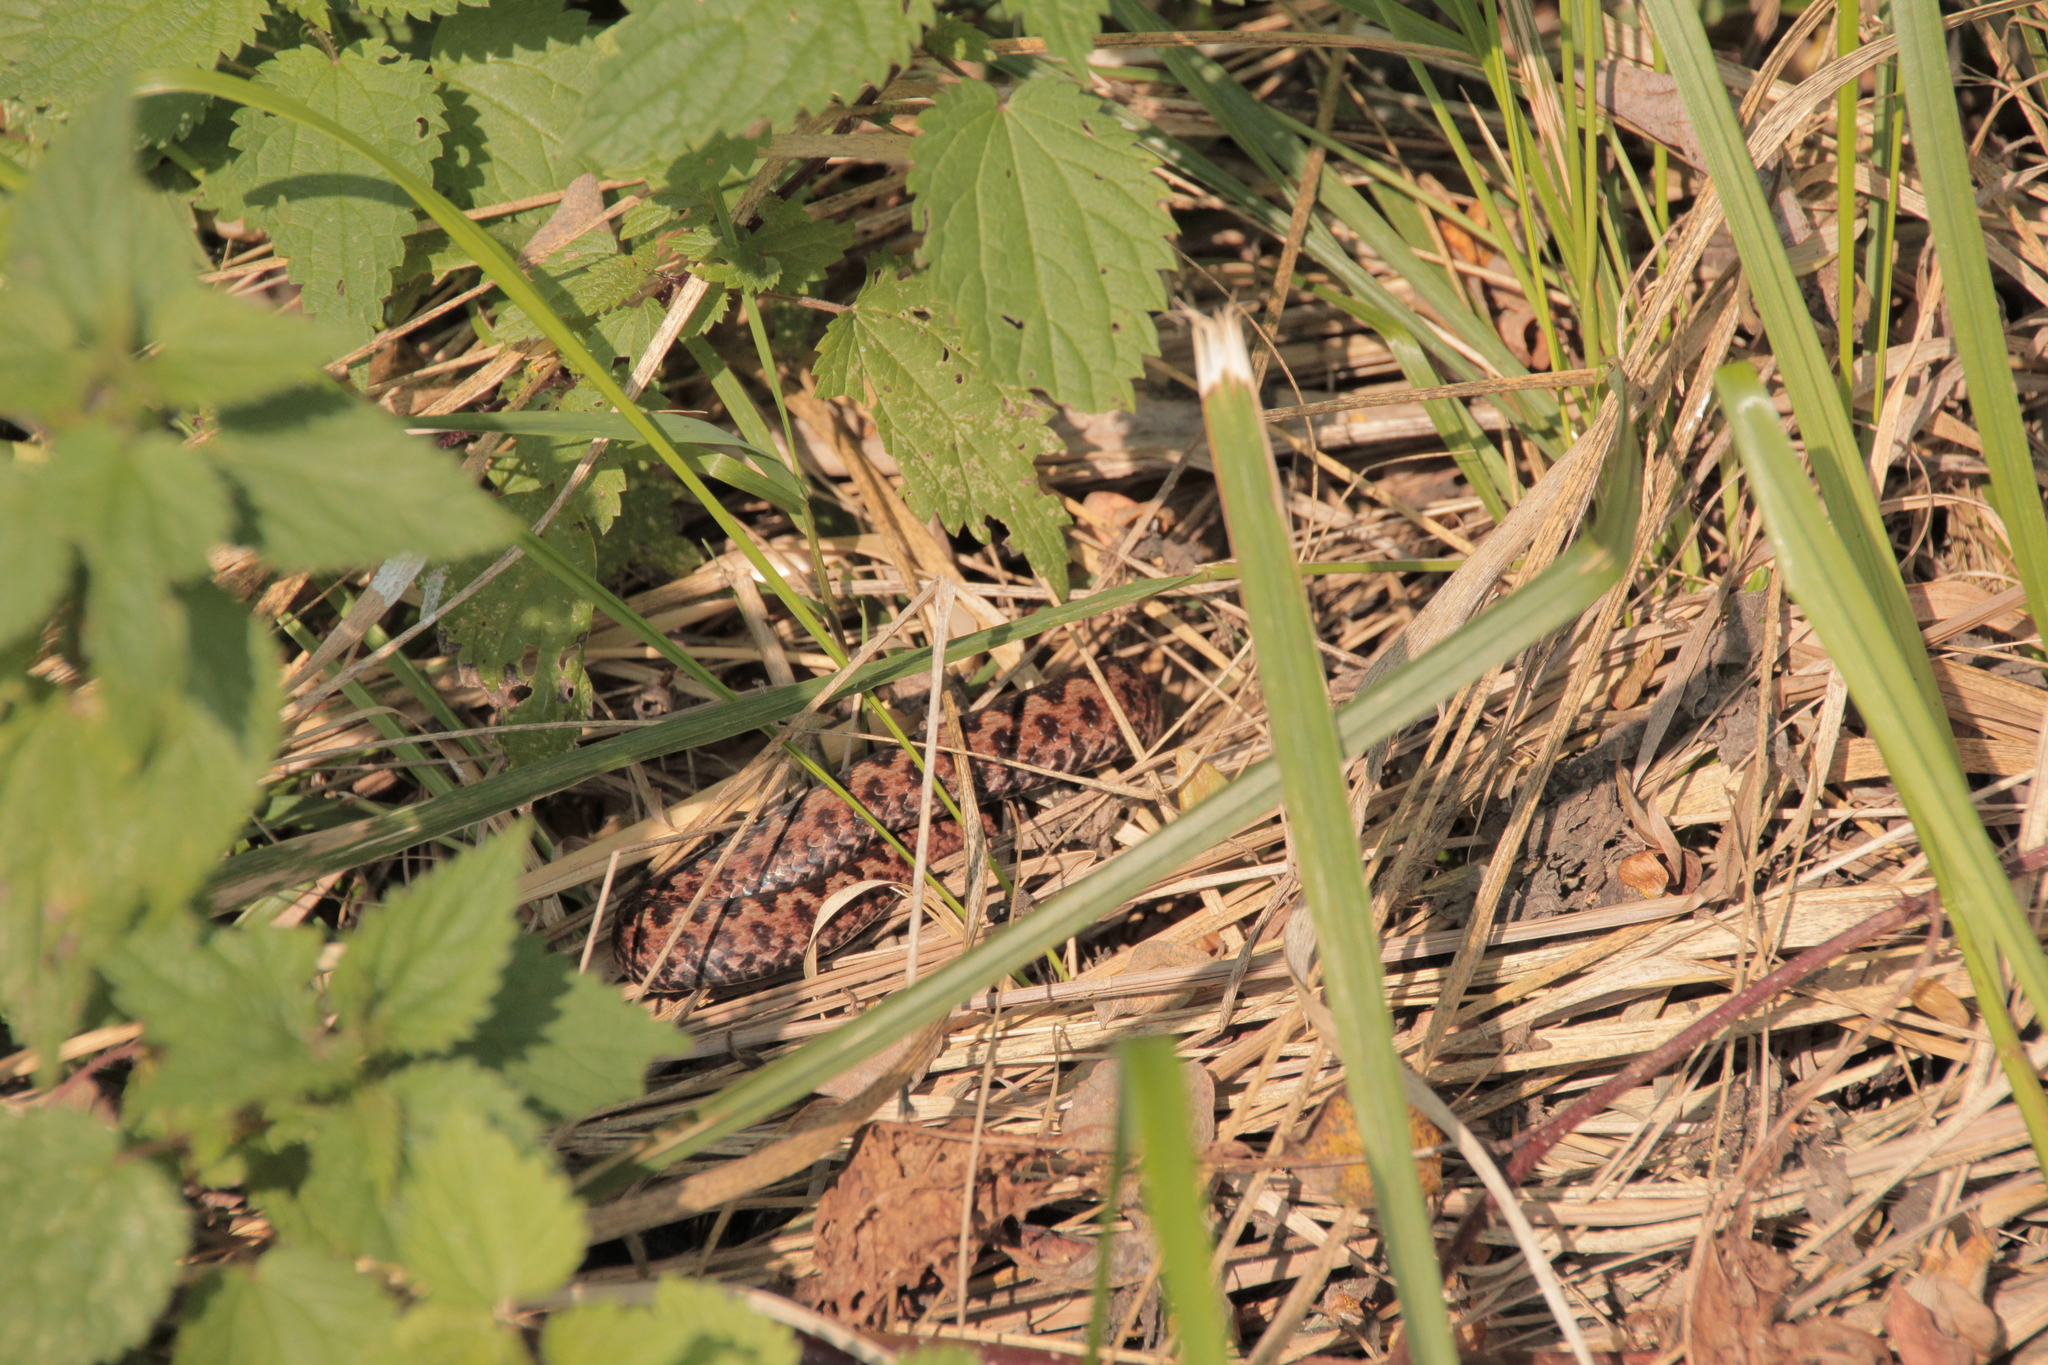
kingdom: Animalia
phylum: Chordata
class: Squamata
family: Viperidae
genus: Vipera
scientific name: Vipera berus
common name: Adder
